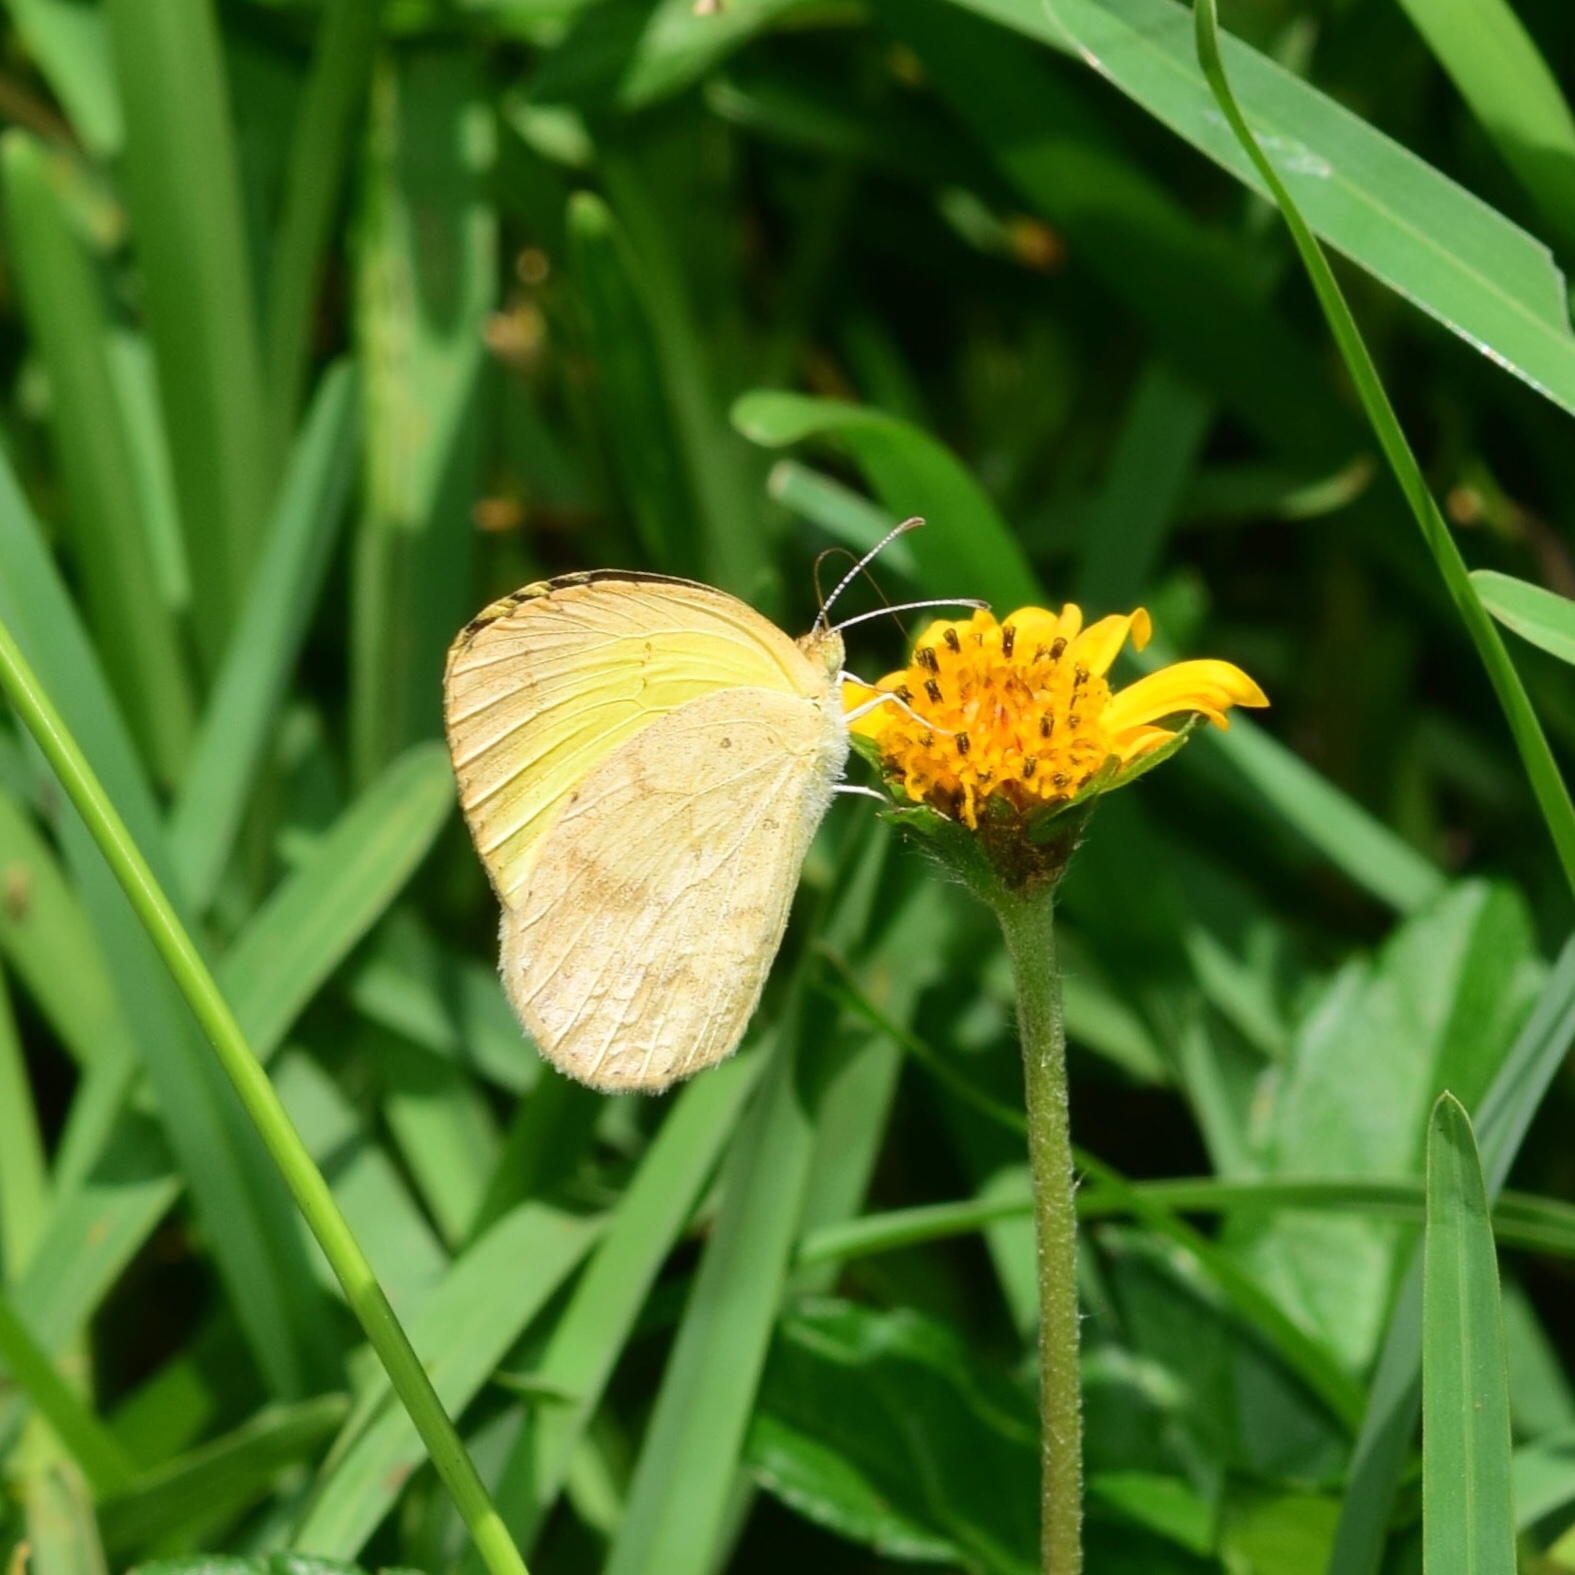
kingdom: Animalia
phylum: Arthropoda
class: Insecta
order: Lepidoptera
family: Pieridae
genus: Eurema
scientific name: Eurema brigitta
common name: Small grass yellow
